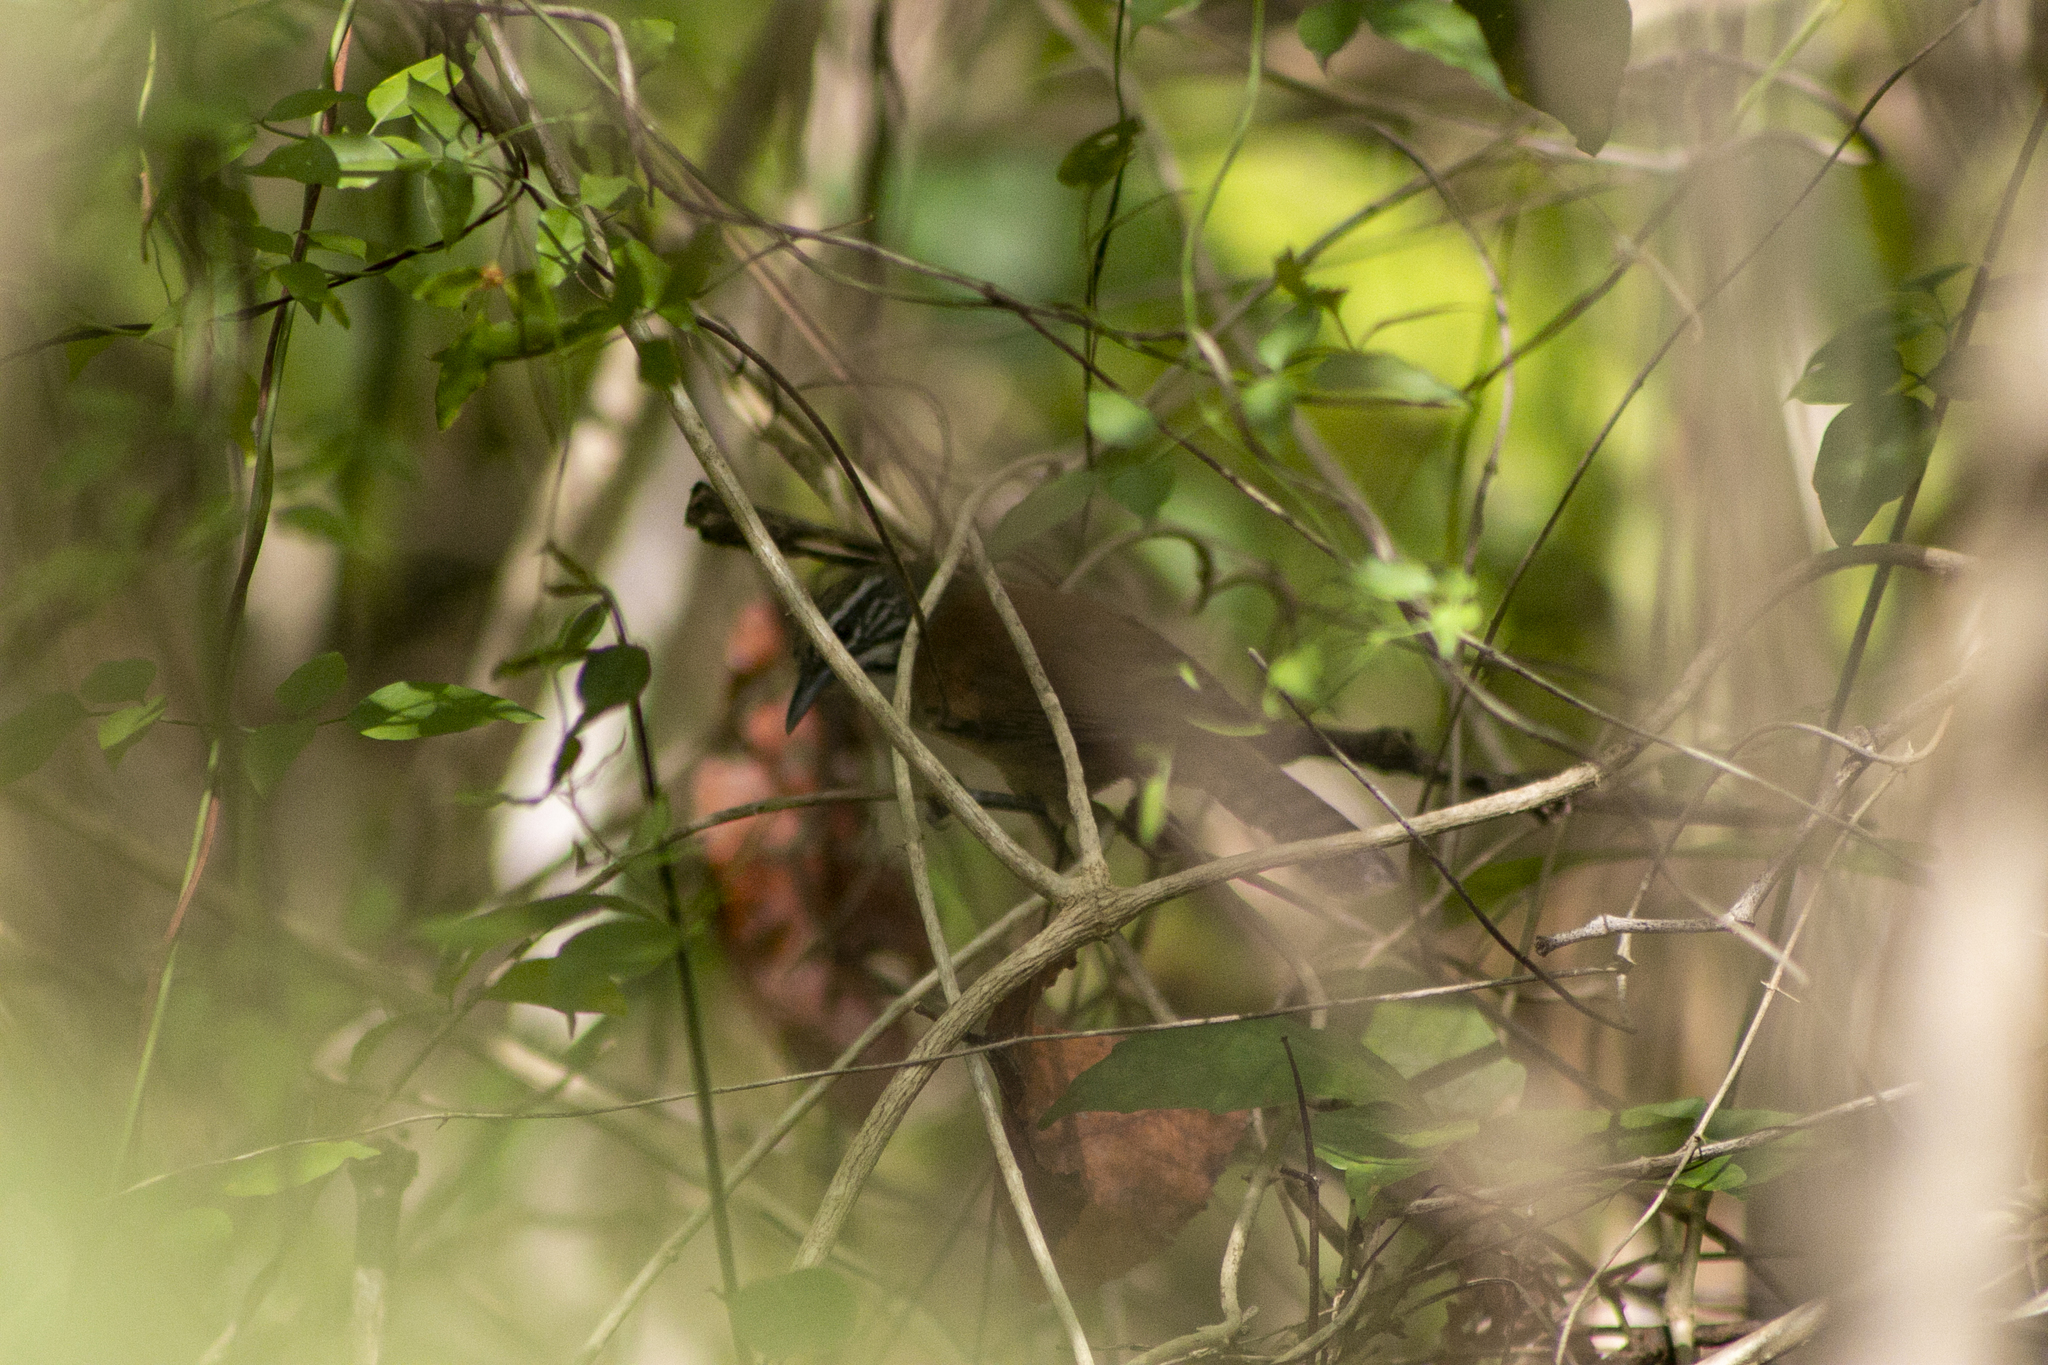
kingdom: Animalia
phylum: Chordata
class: Aves
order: Passeriformes
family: Troglodytidae
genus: Pheugopedius
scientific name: Pheugopedius genibarbis
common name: Moustached wren
